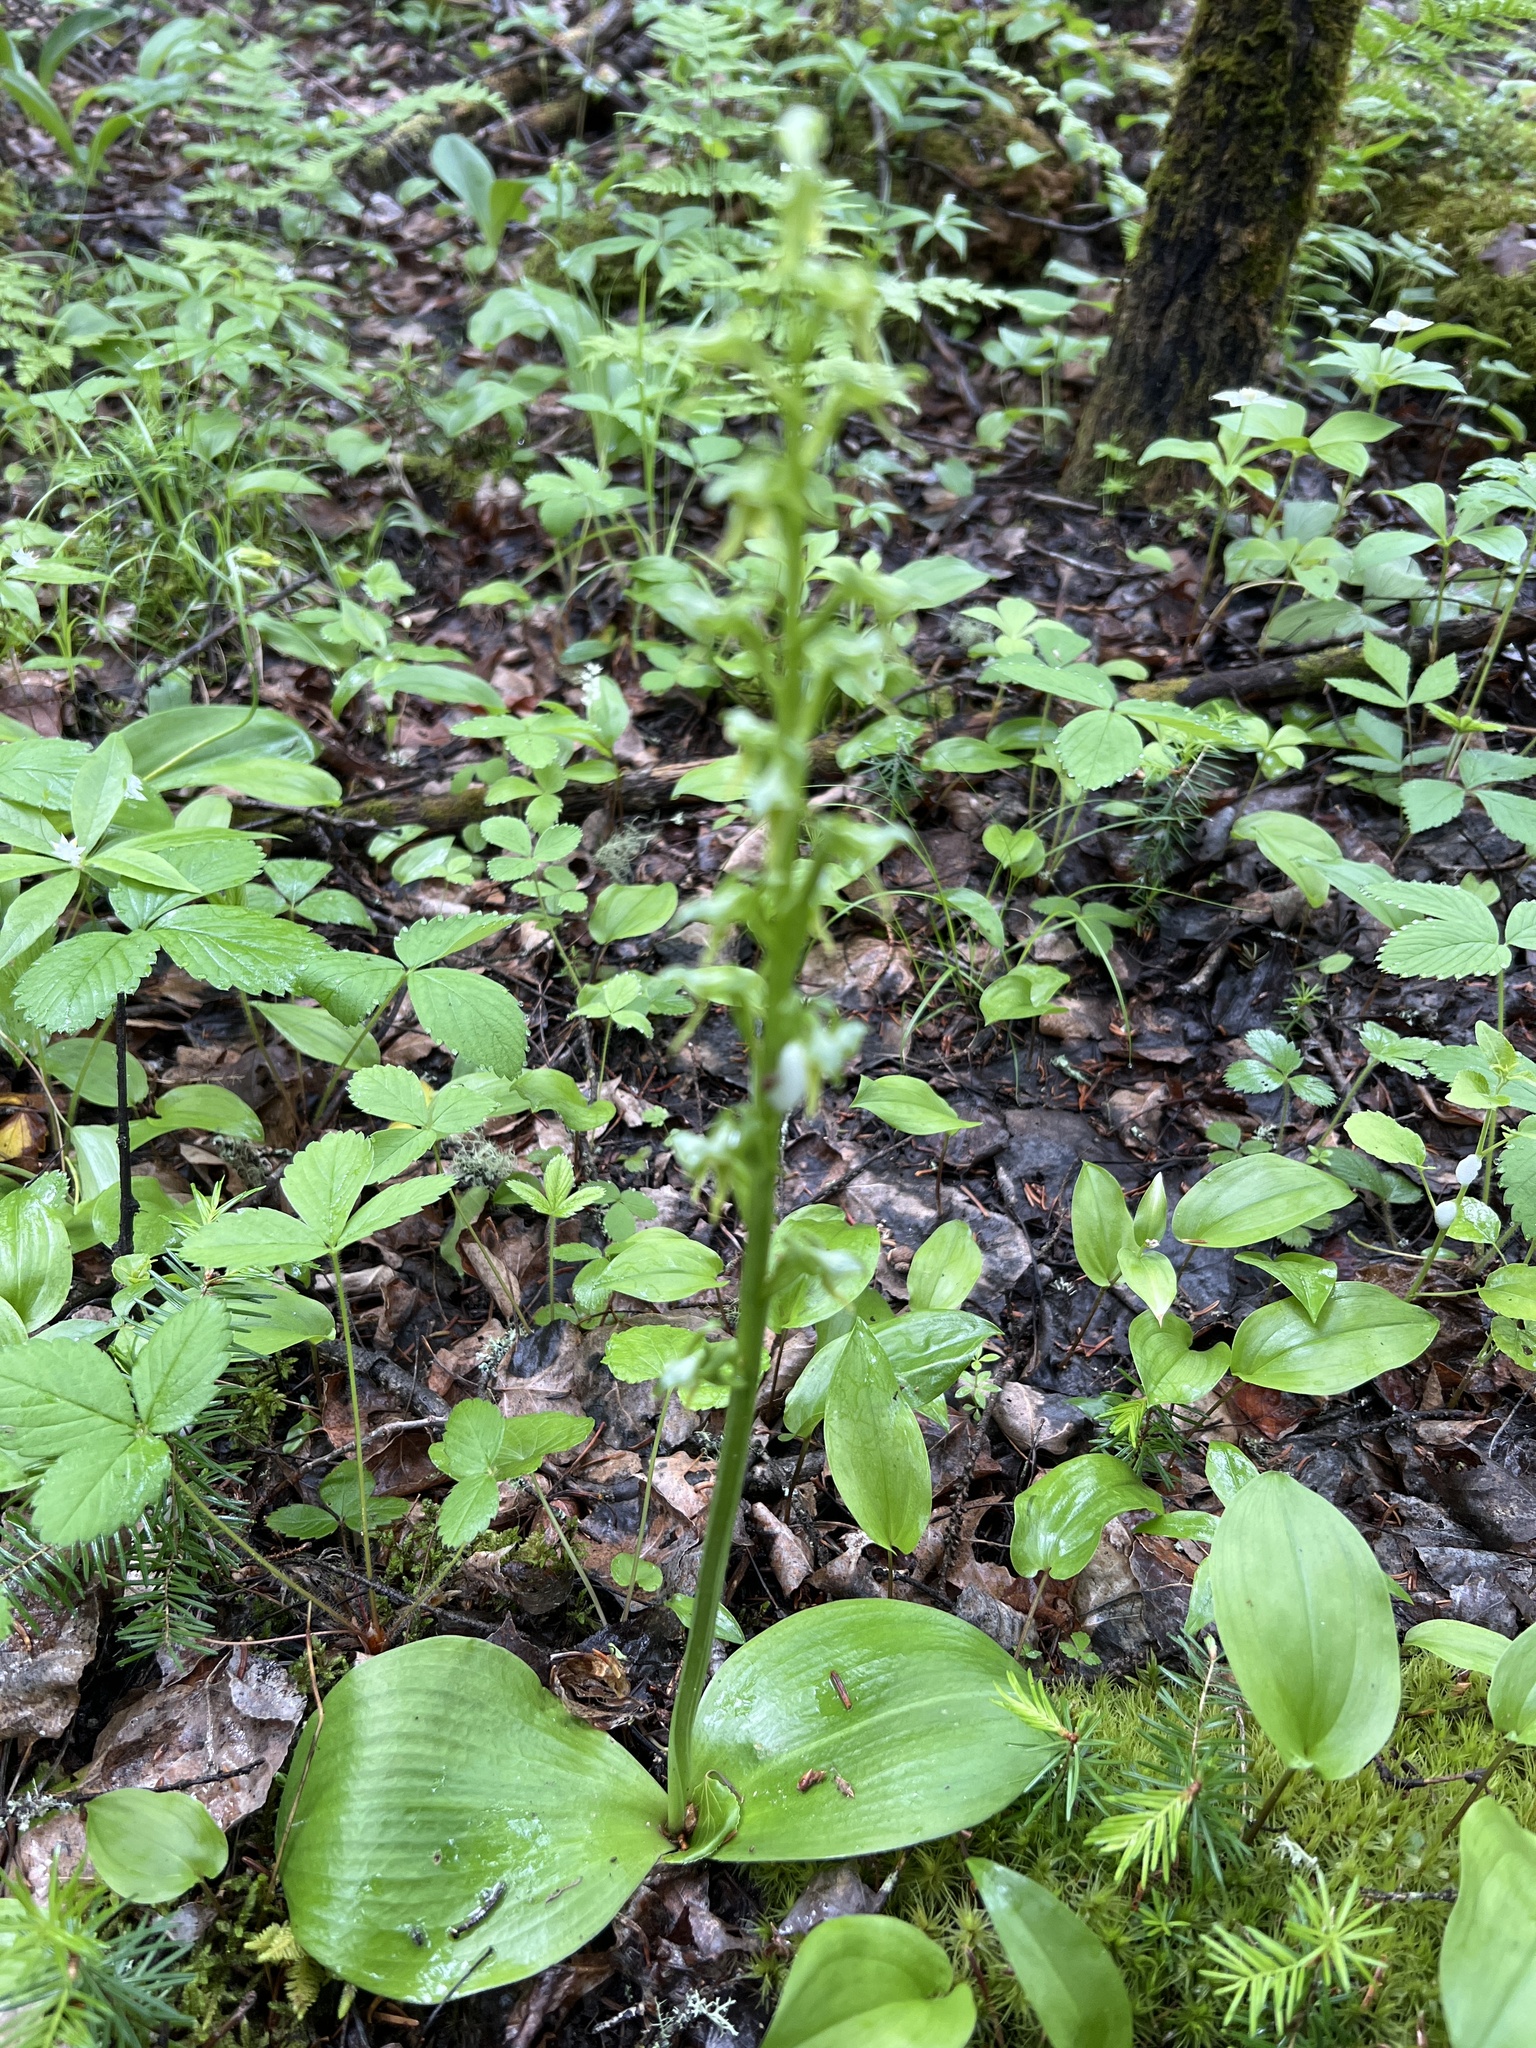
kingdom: Plantae
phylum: Tracheophyta
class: Liliopsida
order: Asparagales
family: Orchidaceae
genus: Platanthera
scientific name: Platanthera hookeri
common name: Hooker's orchid
